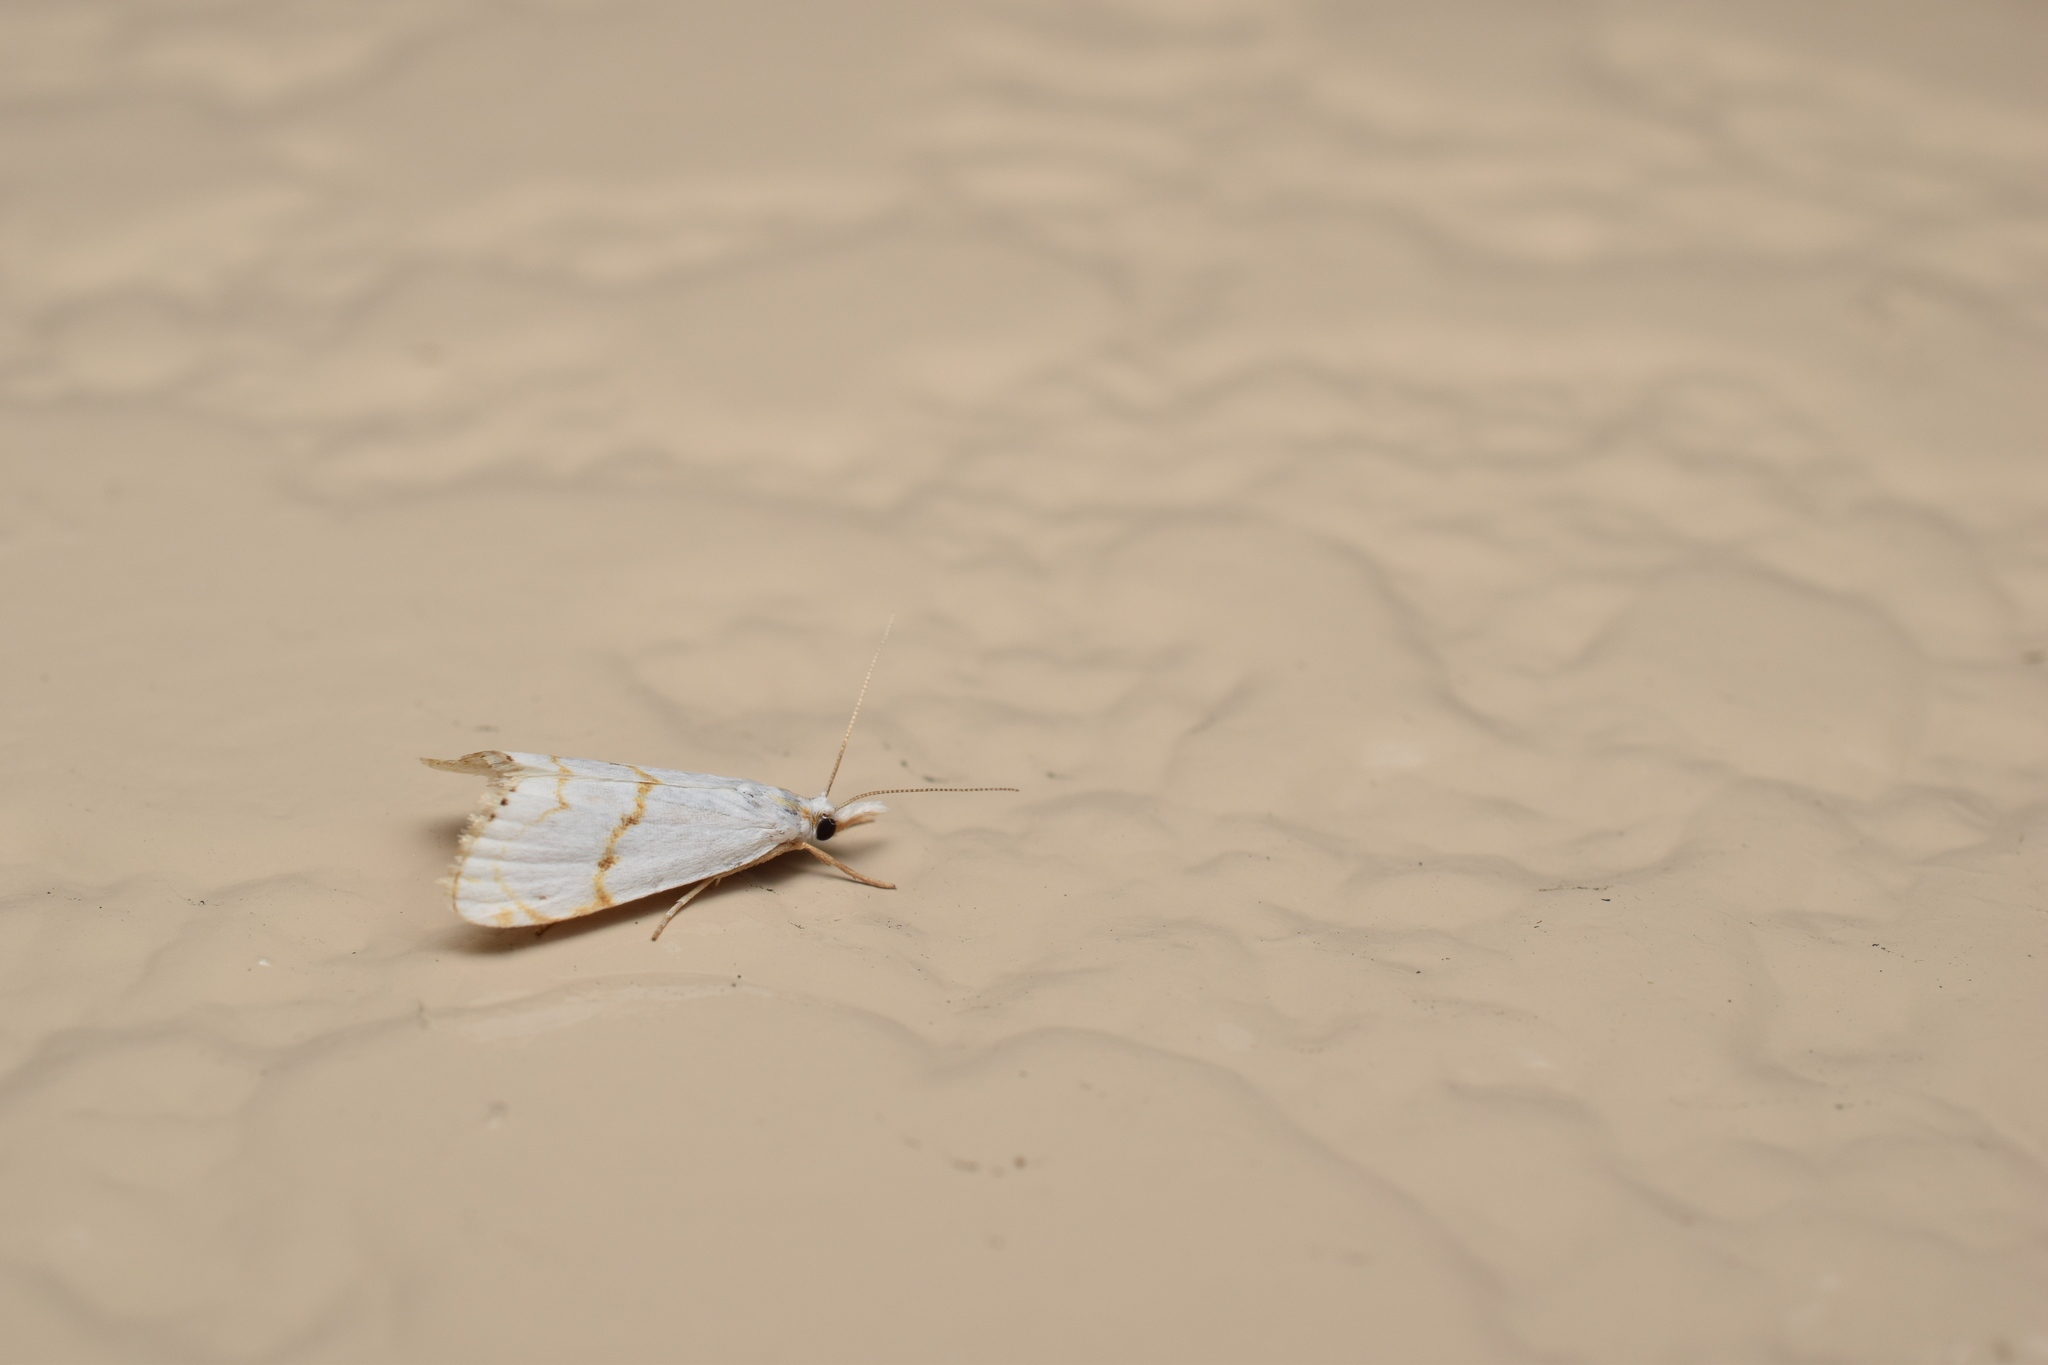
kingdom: Animalia
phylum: Arthropoda
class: Insecta
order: Lepidoptera
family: Crambidae
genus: Pseudargyria
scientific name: Pseudargyria interruptella
